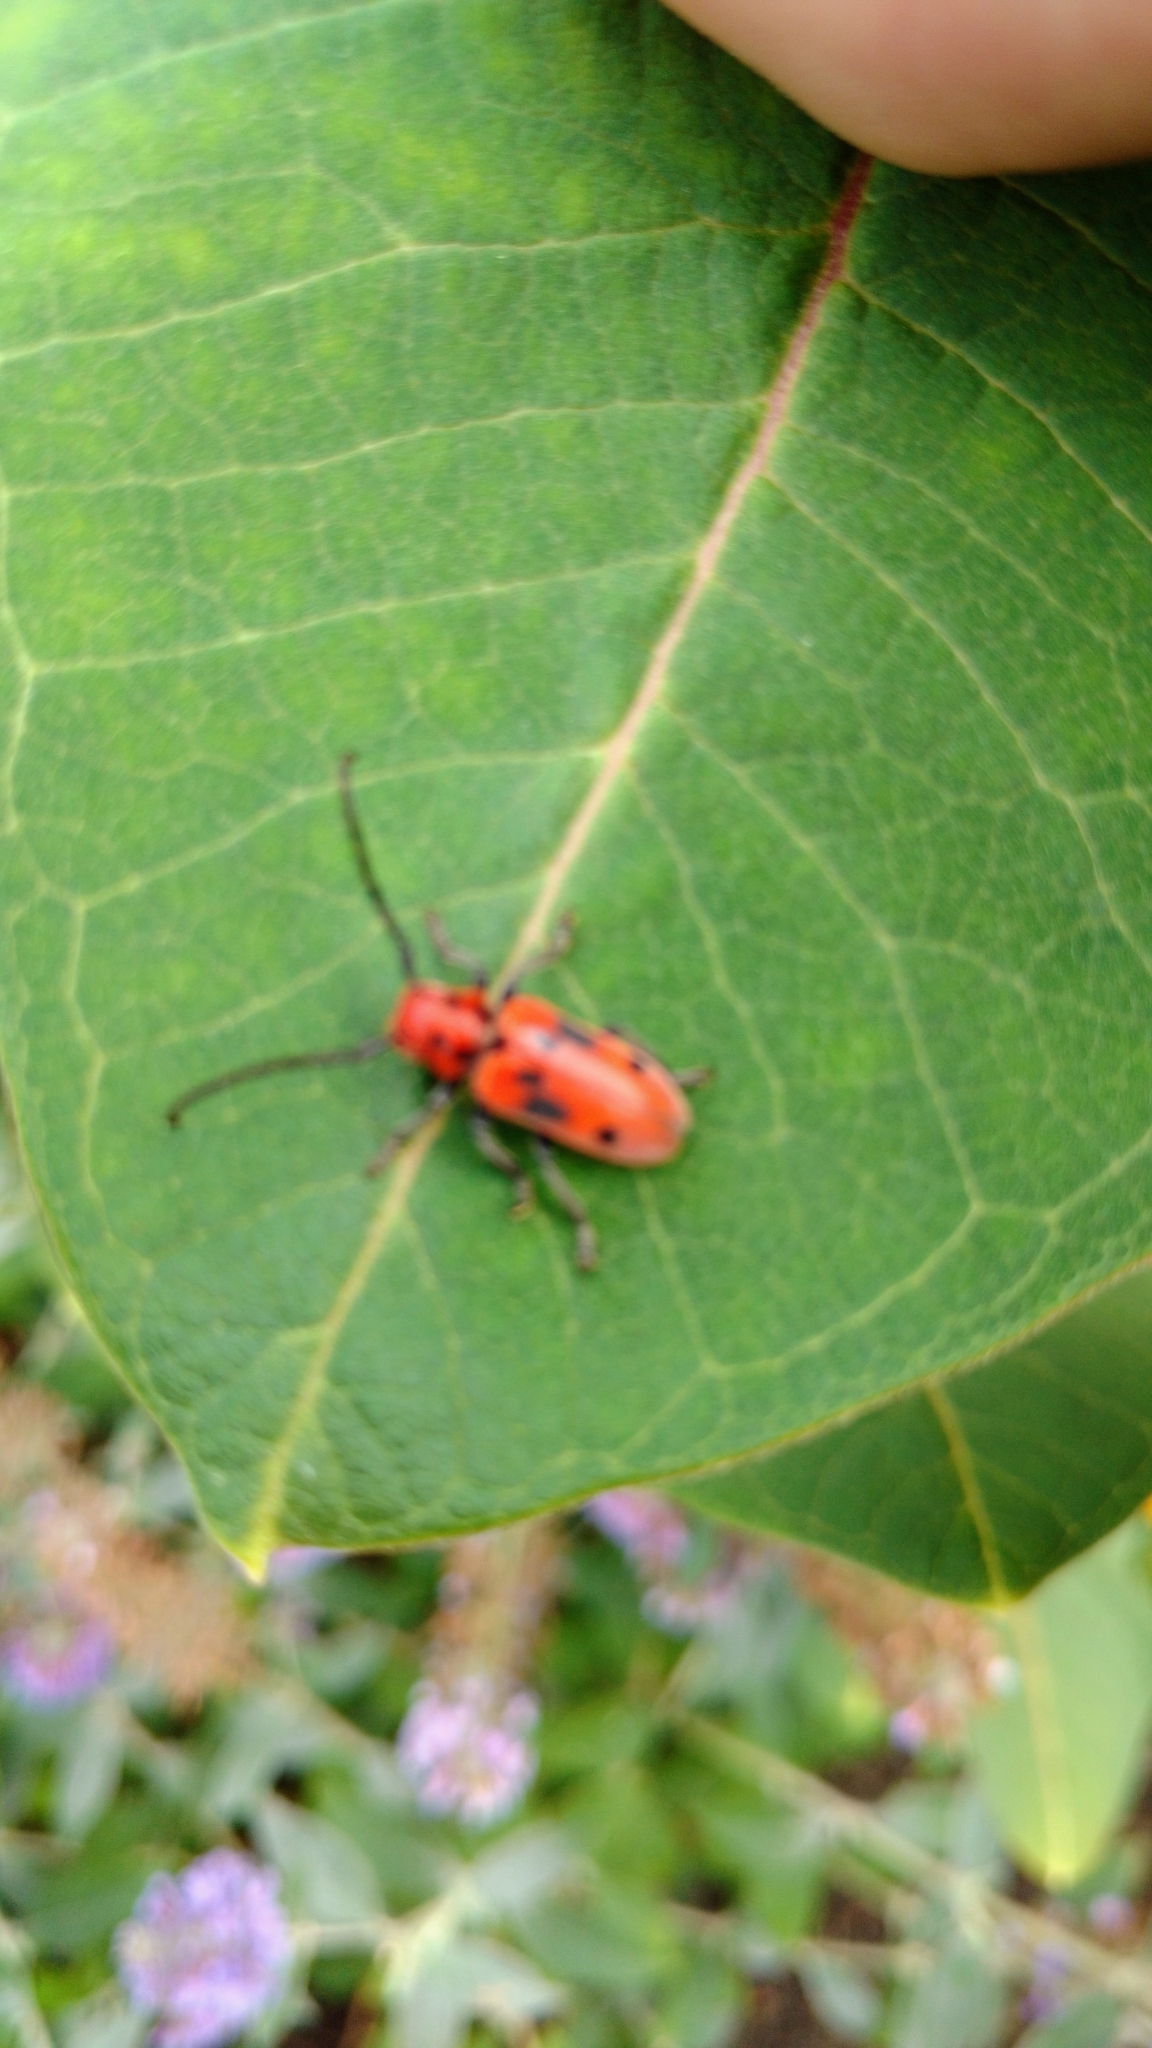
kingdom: Animalia
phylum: Arthropoda
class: Insecta
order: Coleoptera
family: Cerambycidae
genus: Tetraopes
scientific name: Tetraopes tetrophthalmus
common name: Red milkweed beetle
